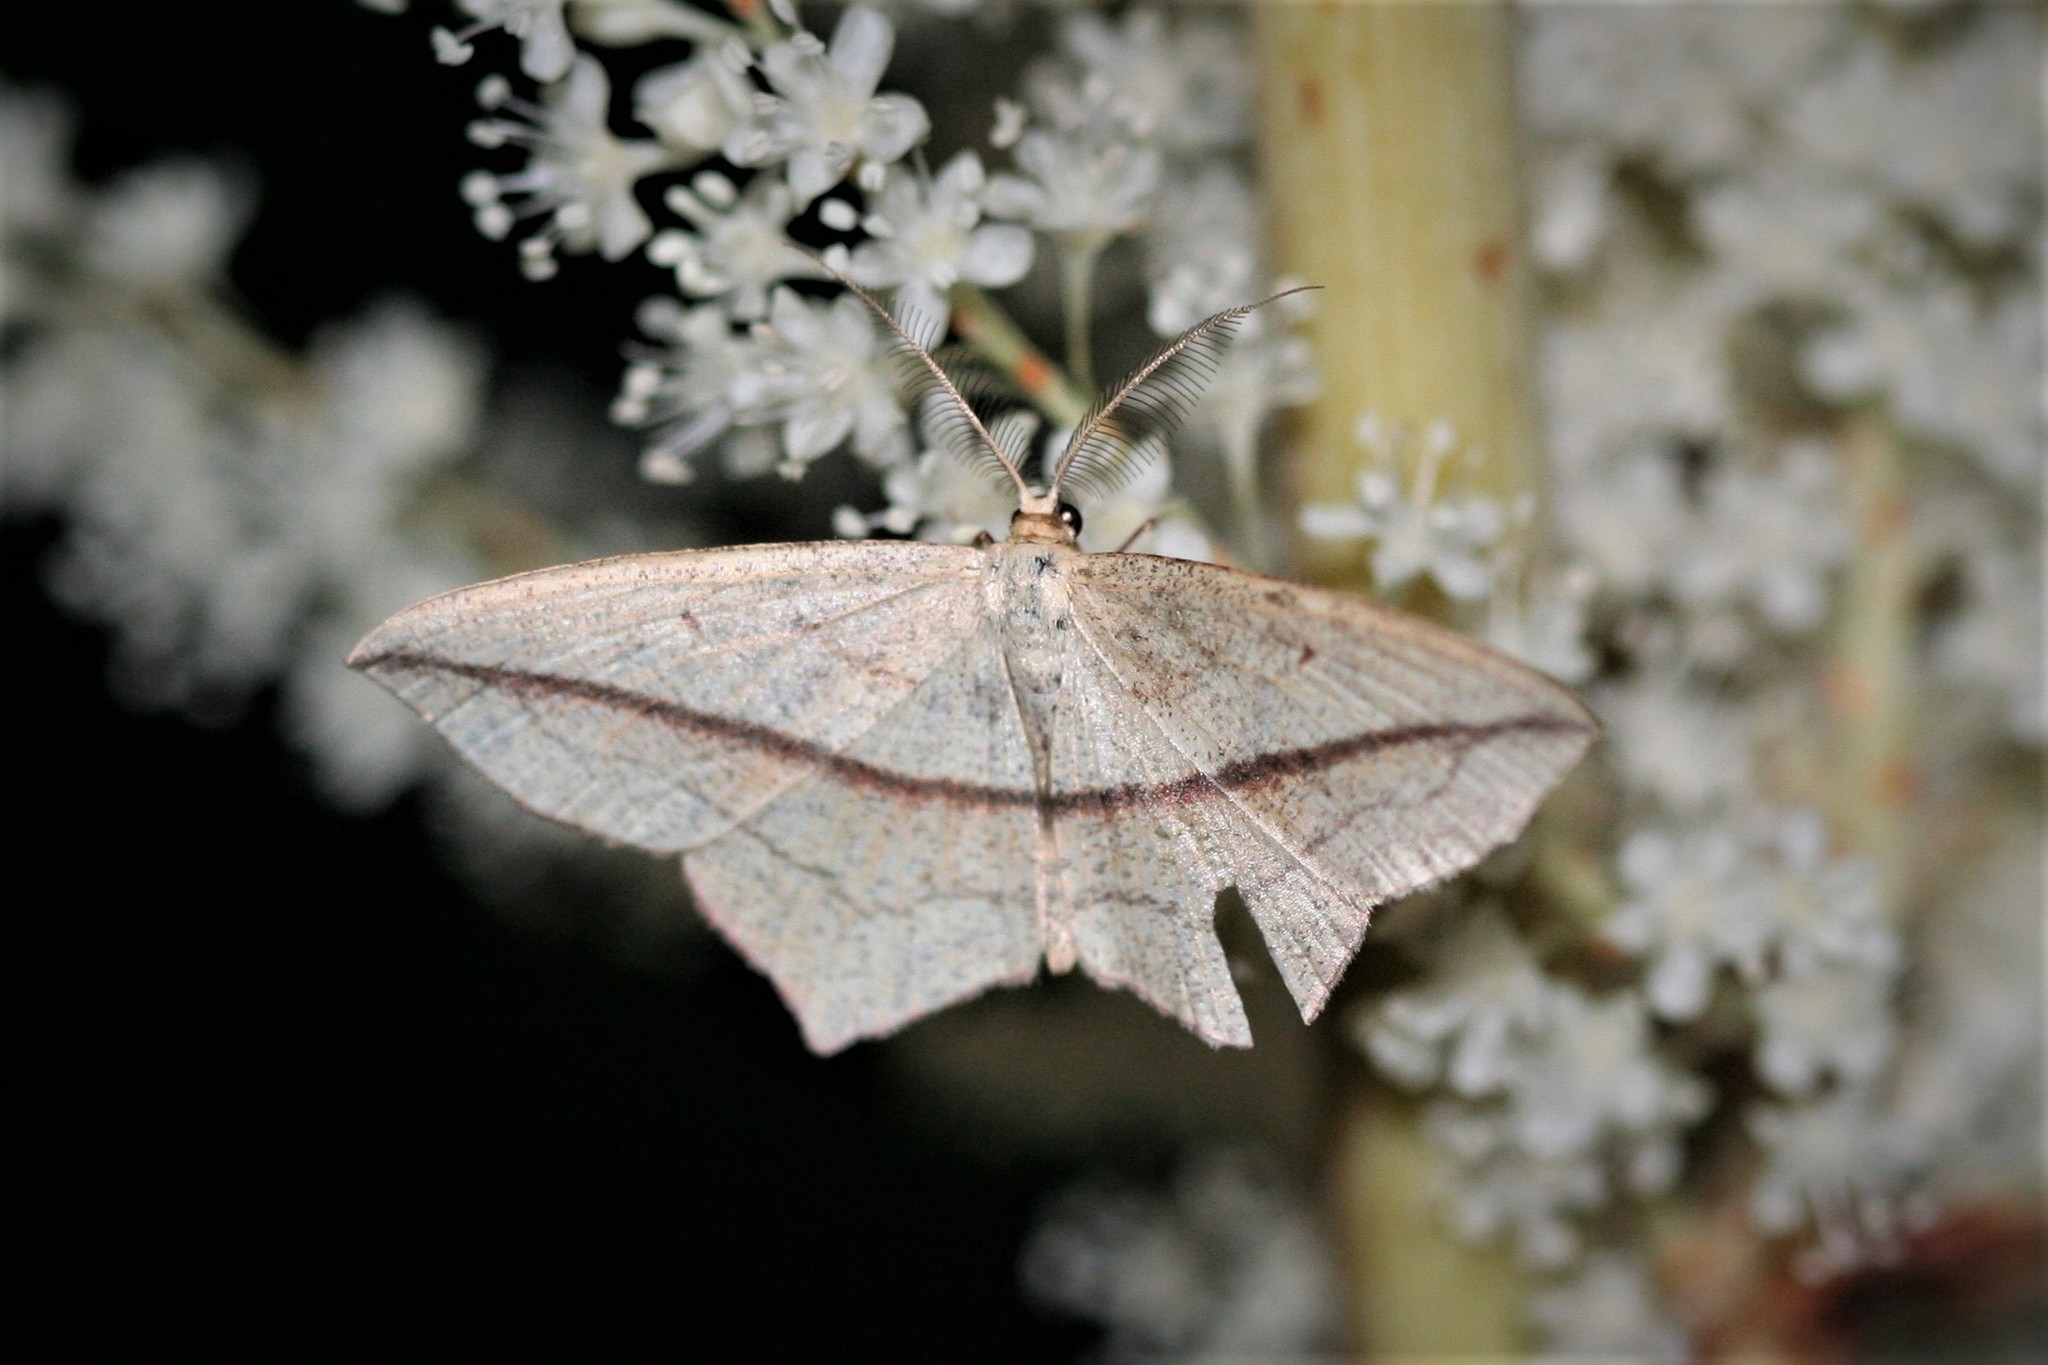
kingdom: Animalia
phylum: Arthropoda
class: Insecta
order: Lepidoptera
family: Geometridae
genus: Timandra
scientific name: Timandra comae
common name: Blood-vein
